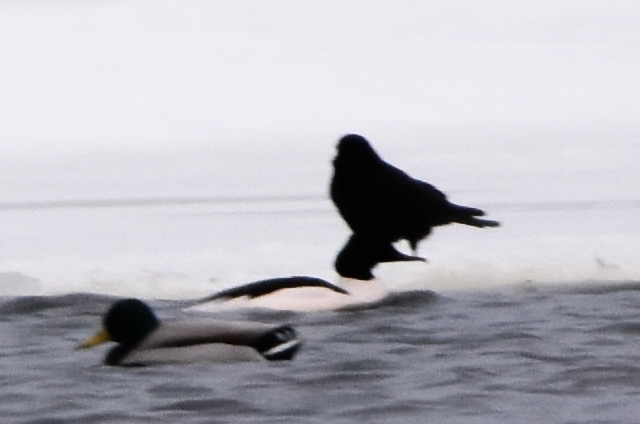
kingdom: Animalia
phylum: Chordata
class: Aves
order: Anseriformes
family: Anatidae
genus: Mergus
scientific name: Mergus merganser
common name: Common merganser
